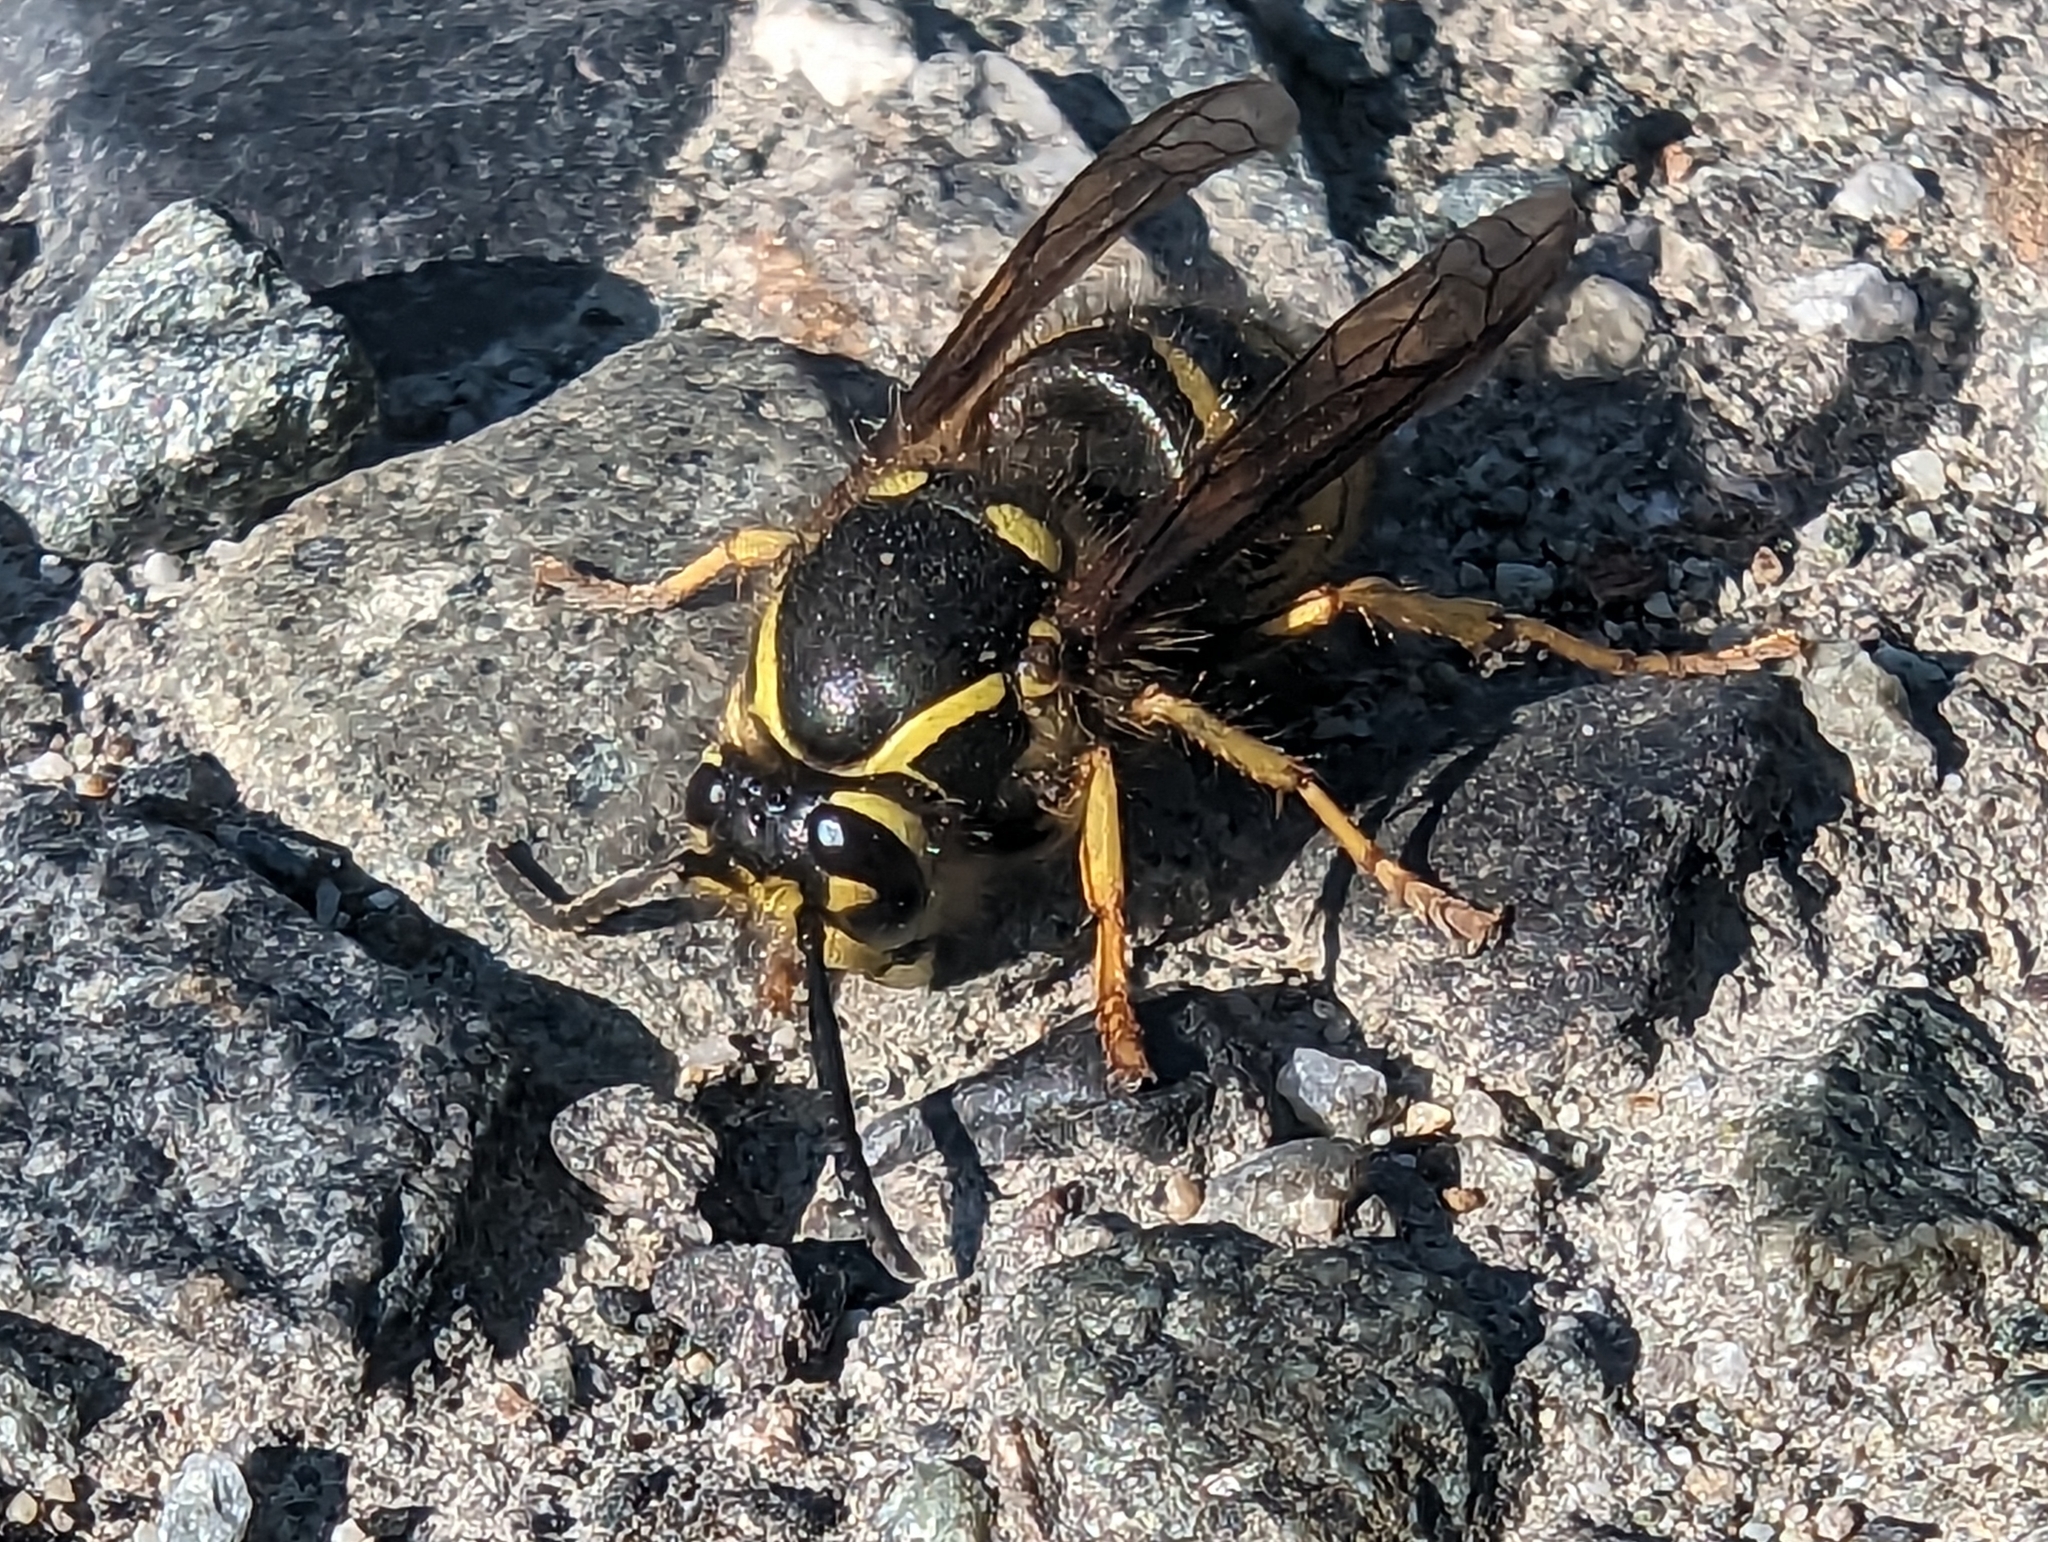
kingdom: Animalia
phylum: Arthropoda
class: Insecta
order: Hymenoptera
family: Vespidae
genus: Dolichovespula
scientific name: Dolichovespula arenaria
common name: Aerial yellowjacket
